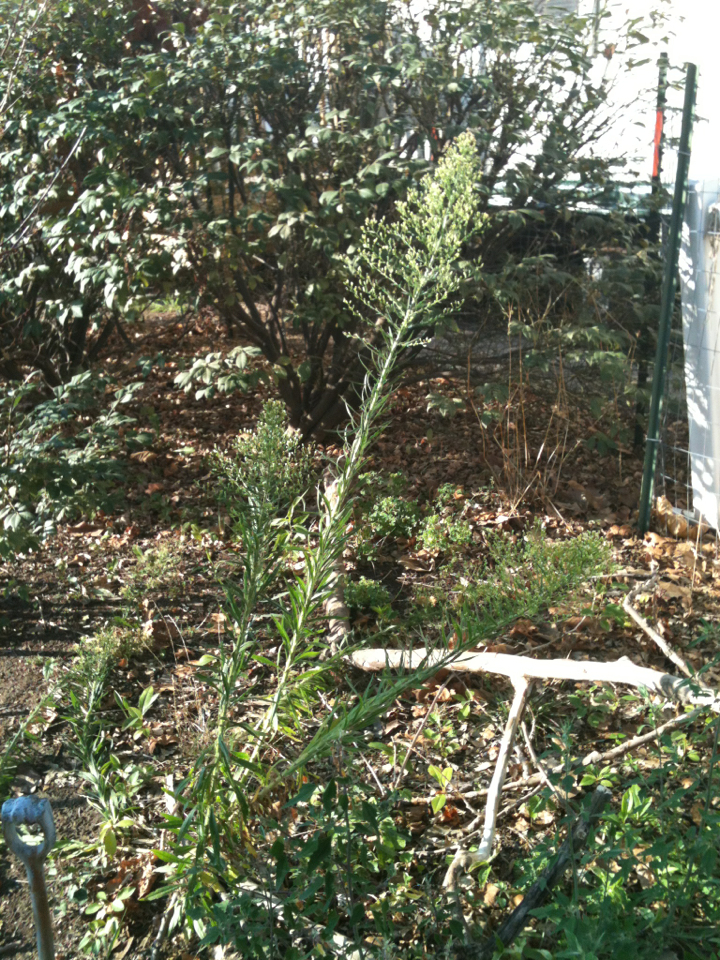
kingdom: Plantae
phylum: Tracheophyta
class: Magnoliopsida
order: Asterales
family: Asteraceae
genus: Erigeron
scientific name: Erigeron canadensis
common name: Canadian fleabane
